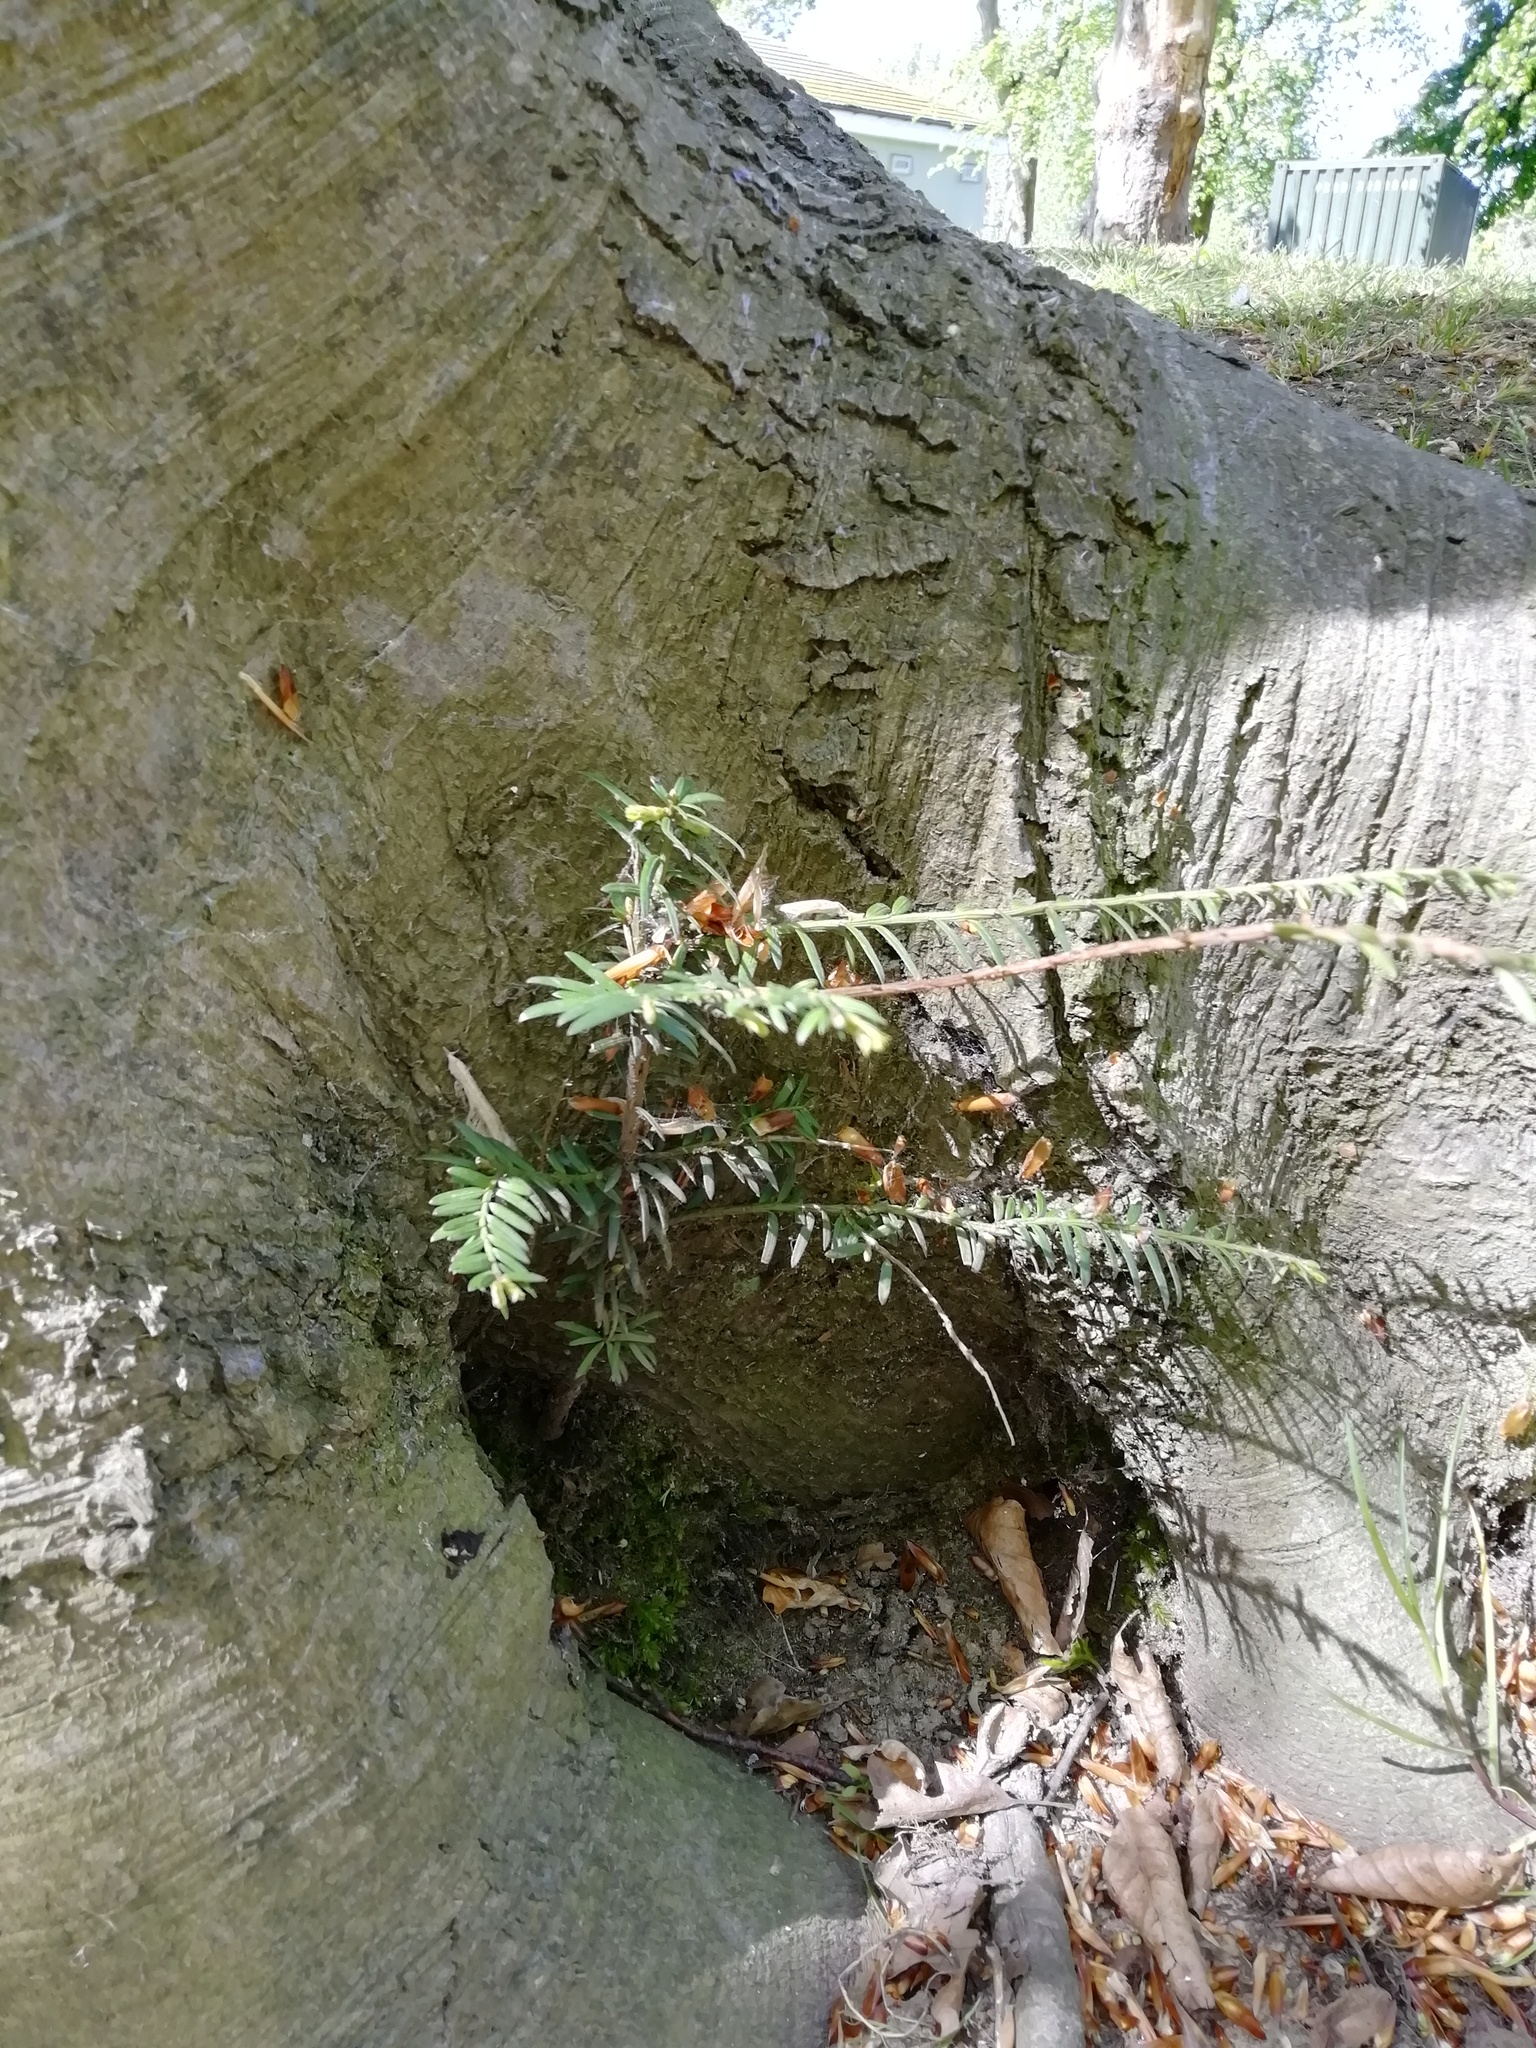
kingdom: Plantae
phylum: Tracheophyta
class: Pinopsida
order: Pinales
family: Taxaceae
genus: Taxus
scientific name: Taxus baccata
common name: Yew
